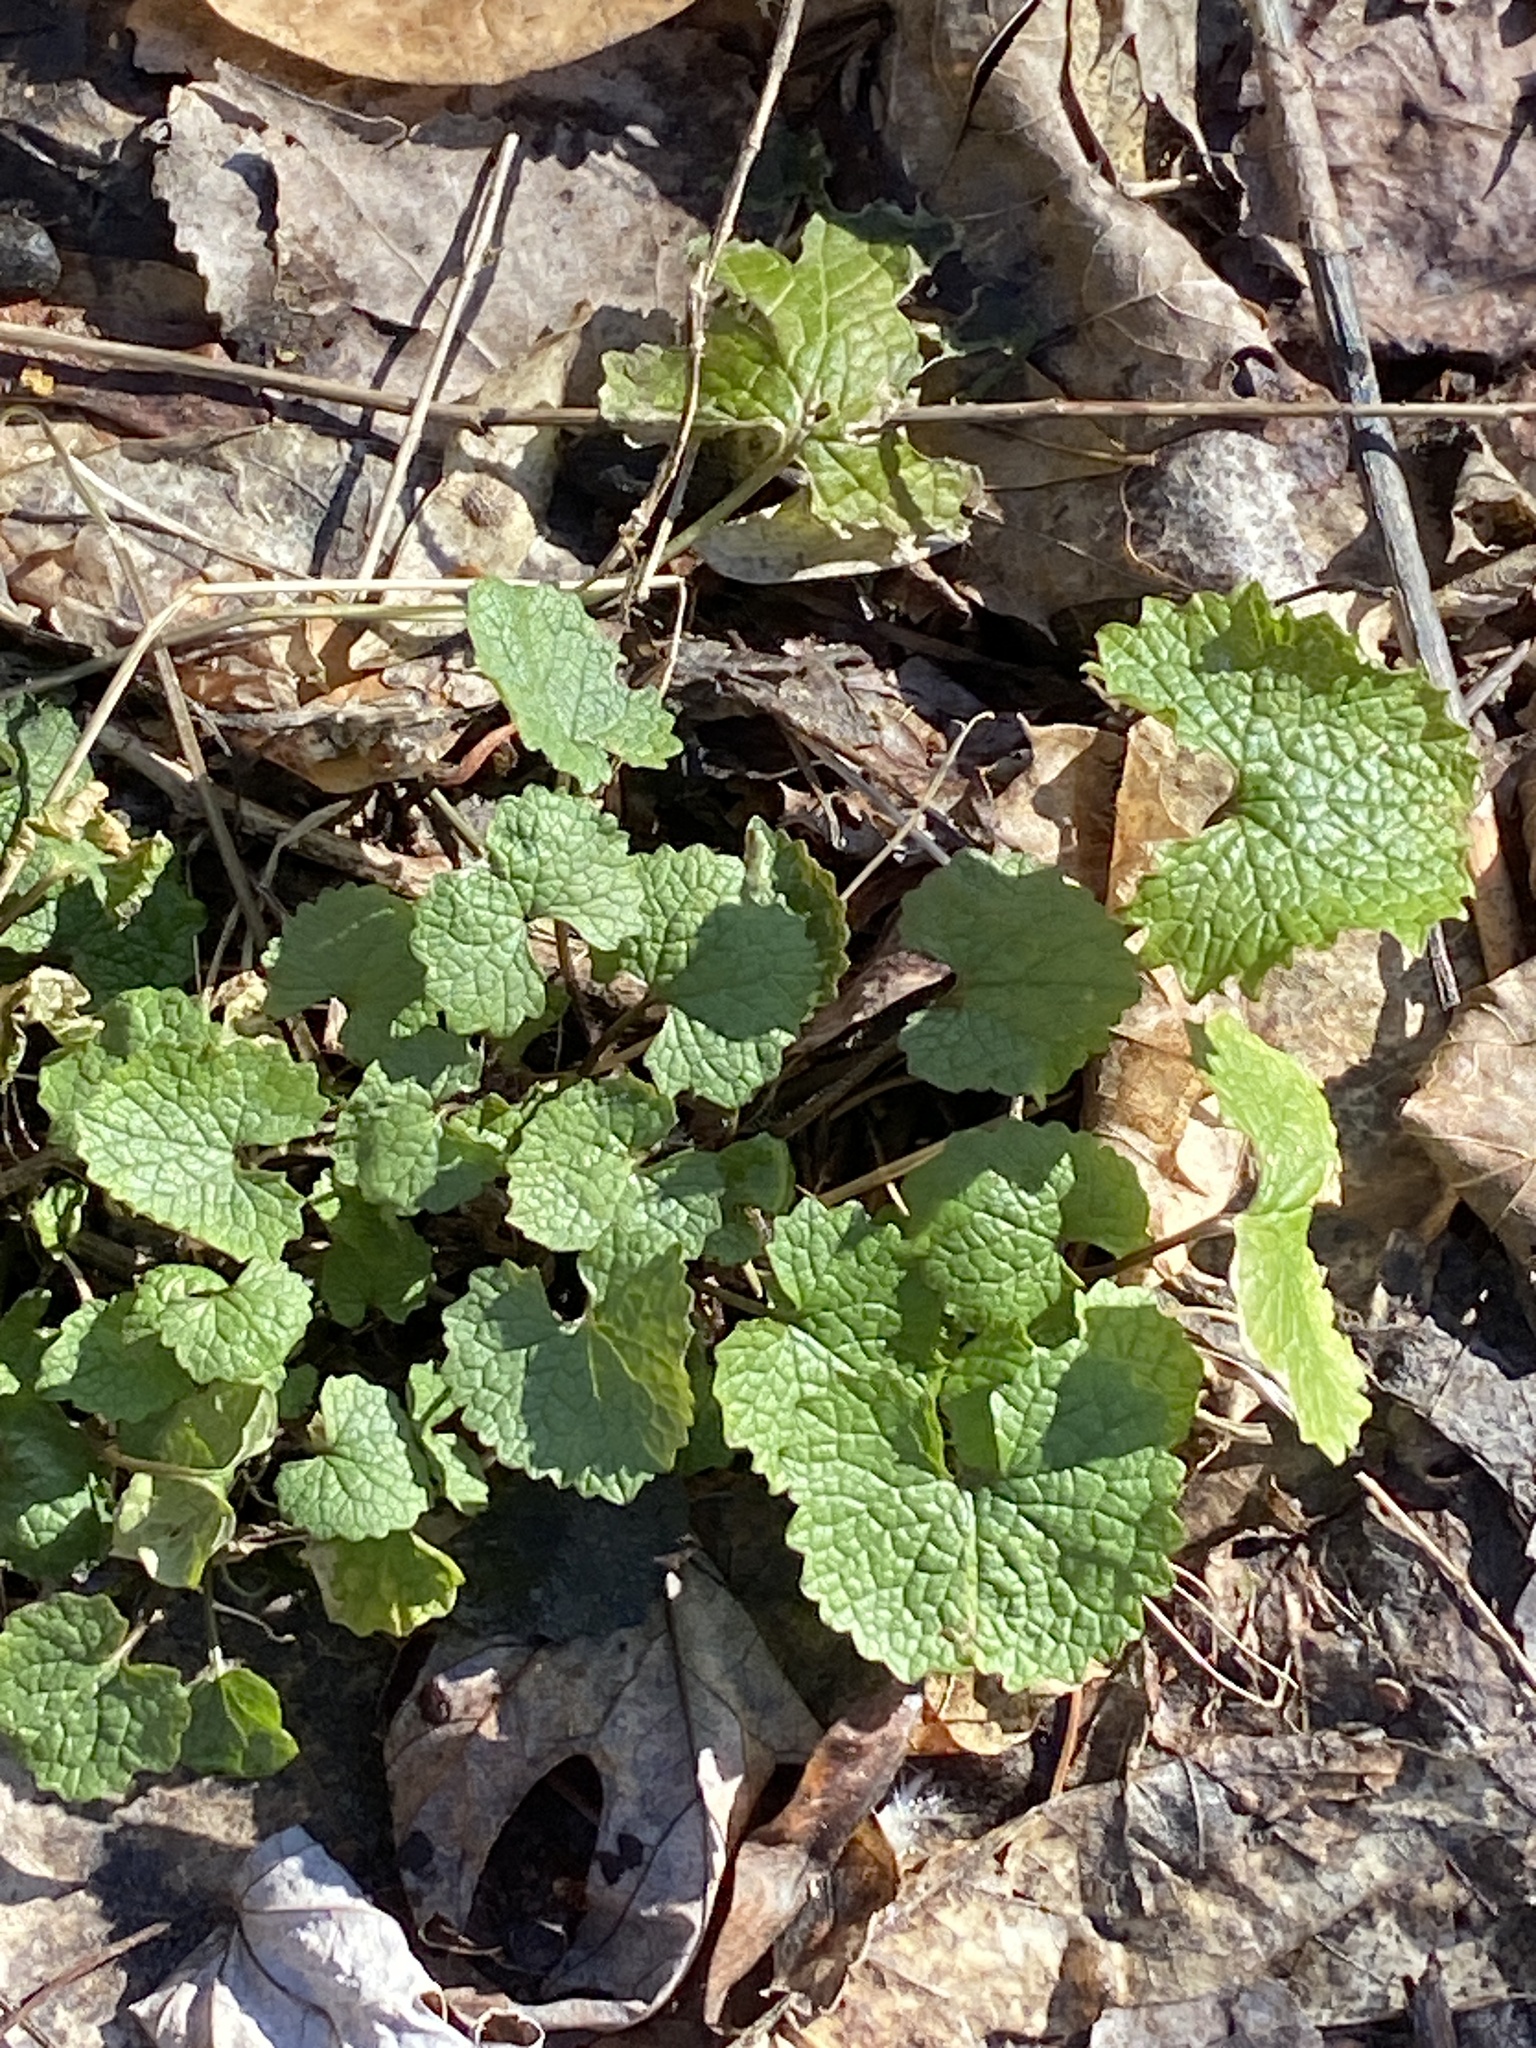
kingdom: Plantae
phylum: Tracheophyta
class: Magnoliopsida
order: Brassicales
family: Brassicaceae
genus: Alliaria
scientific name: Alliaria petiolata
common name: Garlic mustard
